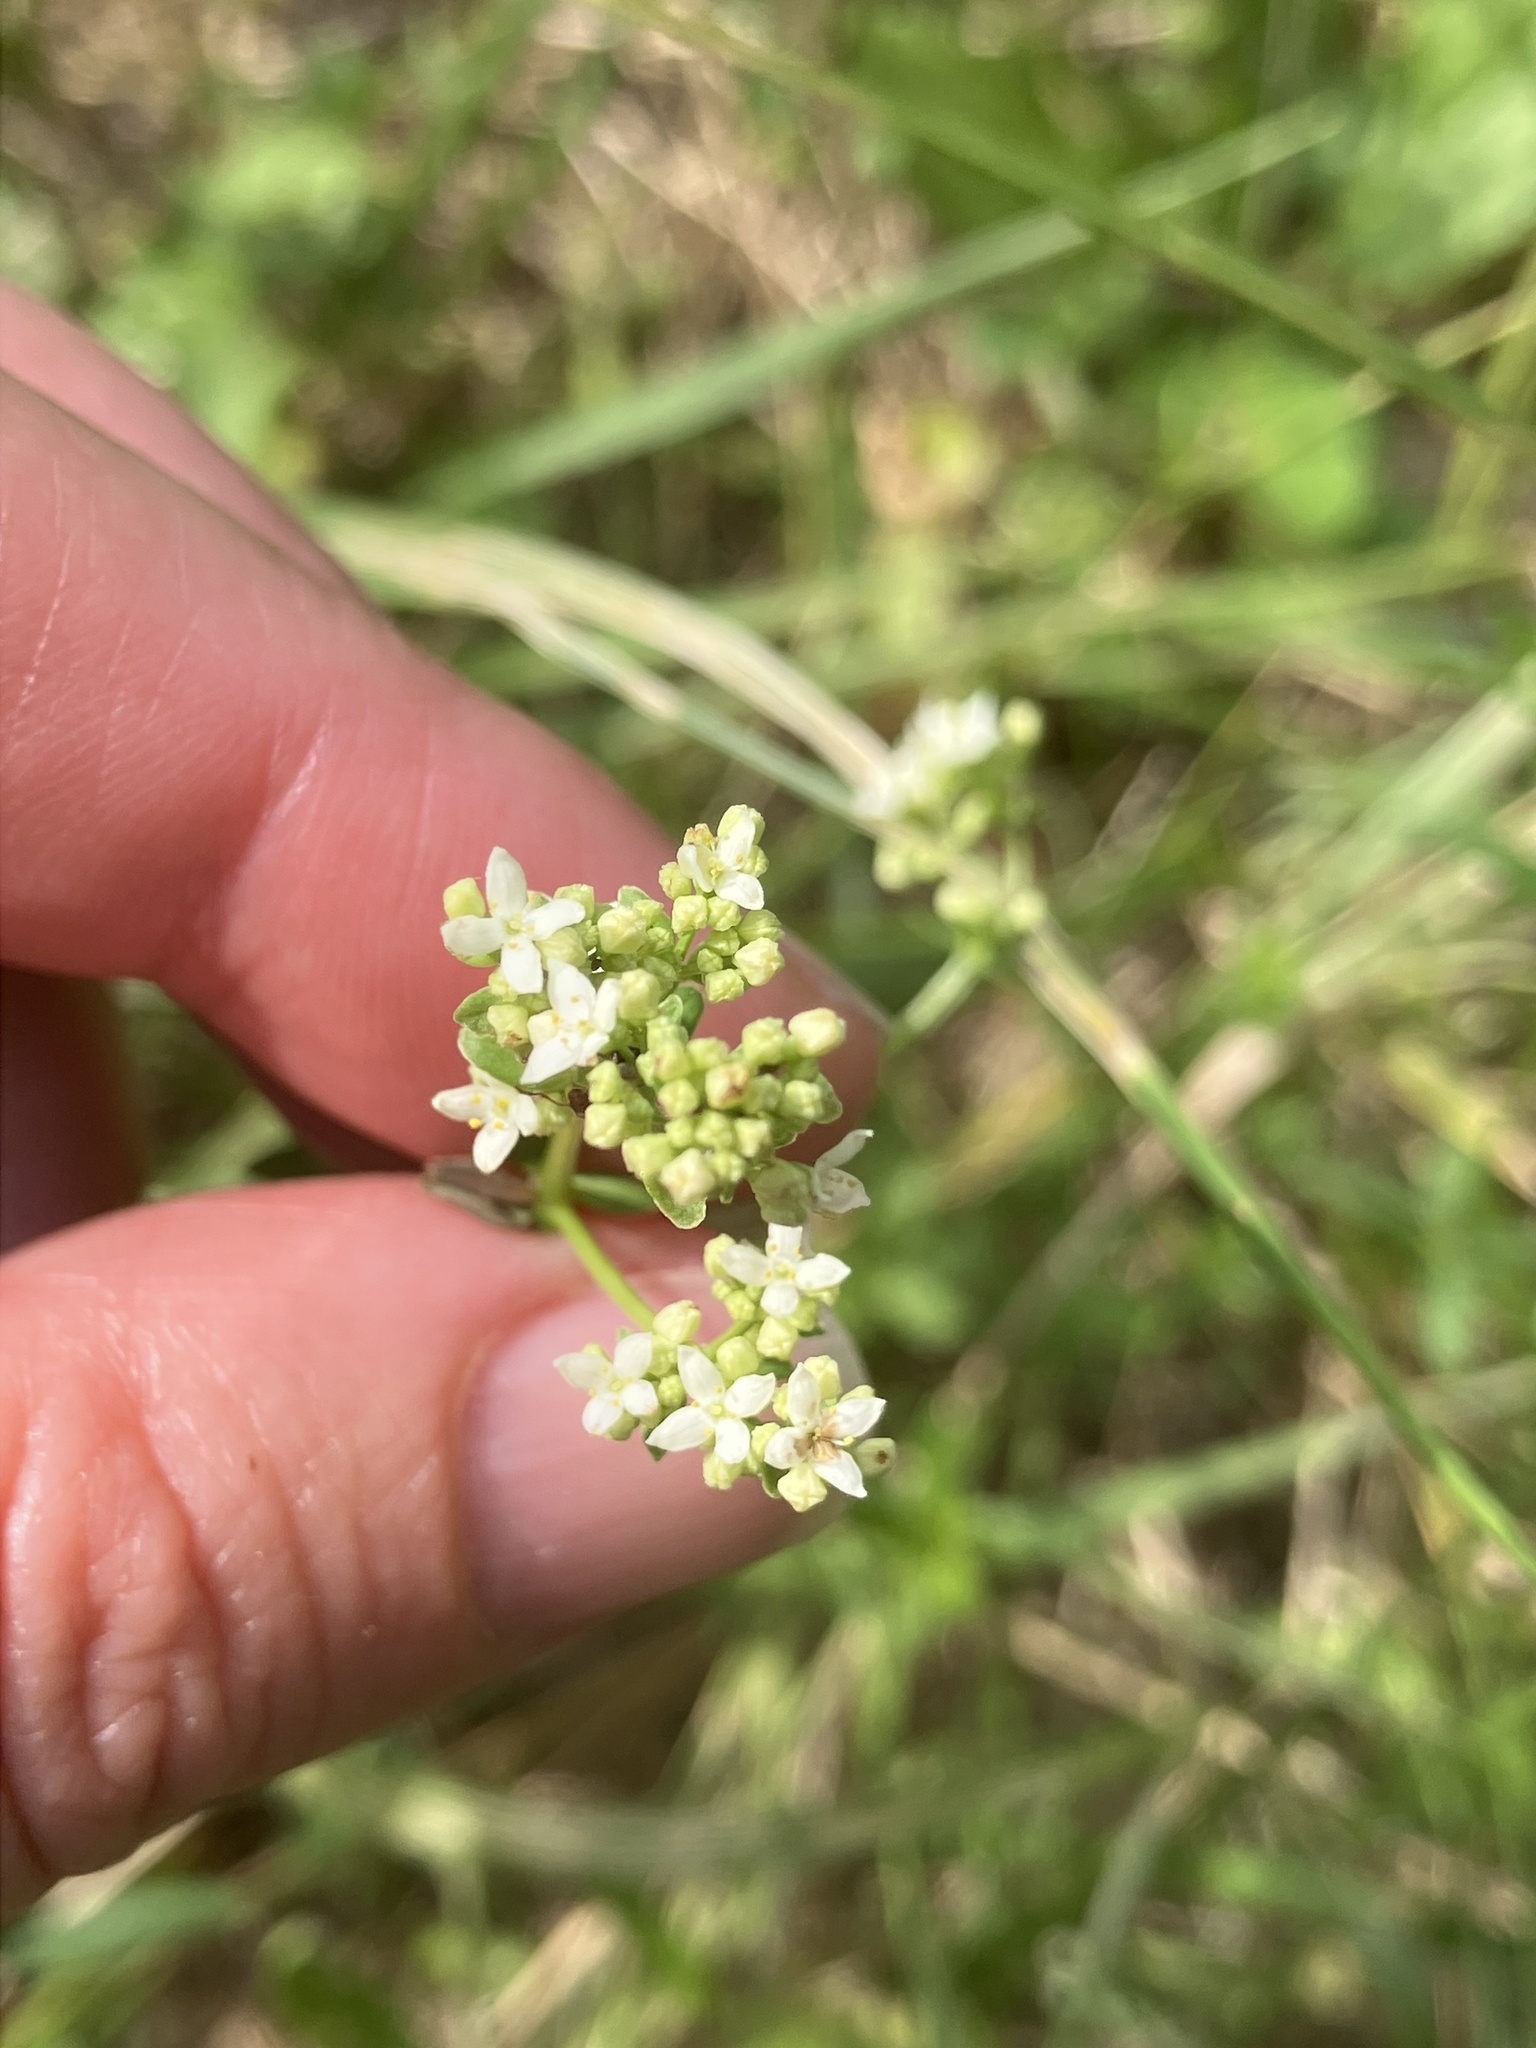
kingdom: Plantae
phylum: Tracheophyta
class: Magnoliopsida
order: Gentianales
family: Rubiaceae
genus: Galium
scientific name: Galium boreale
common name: Northern bedstraw
